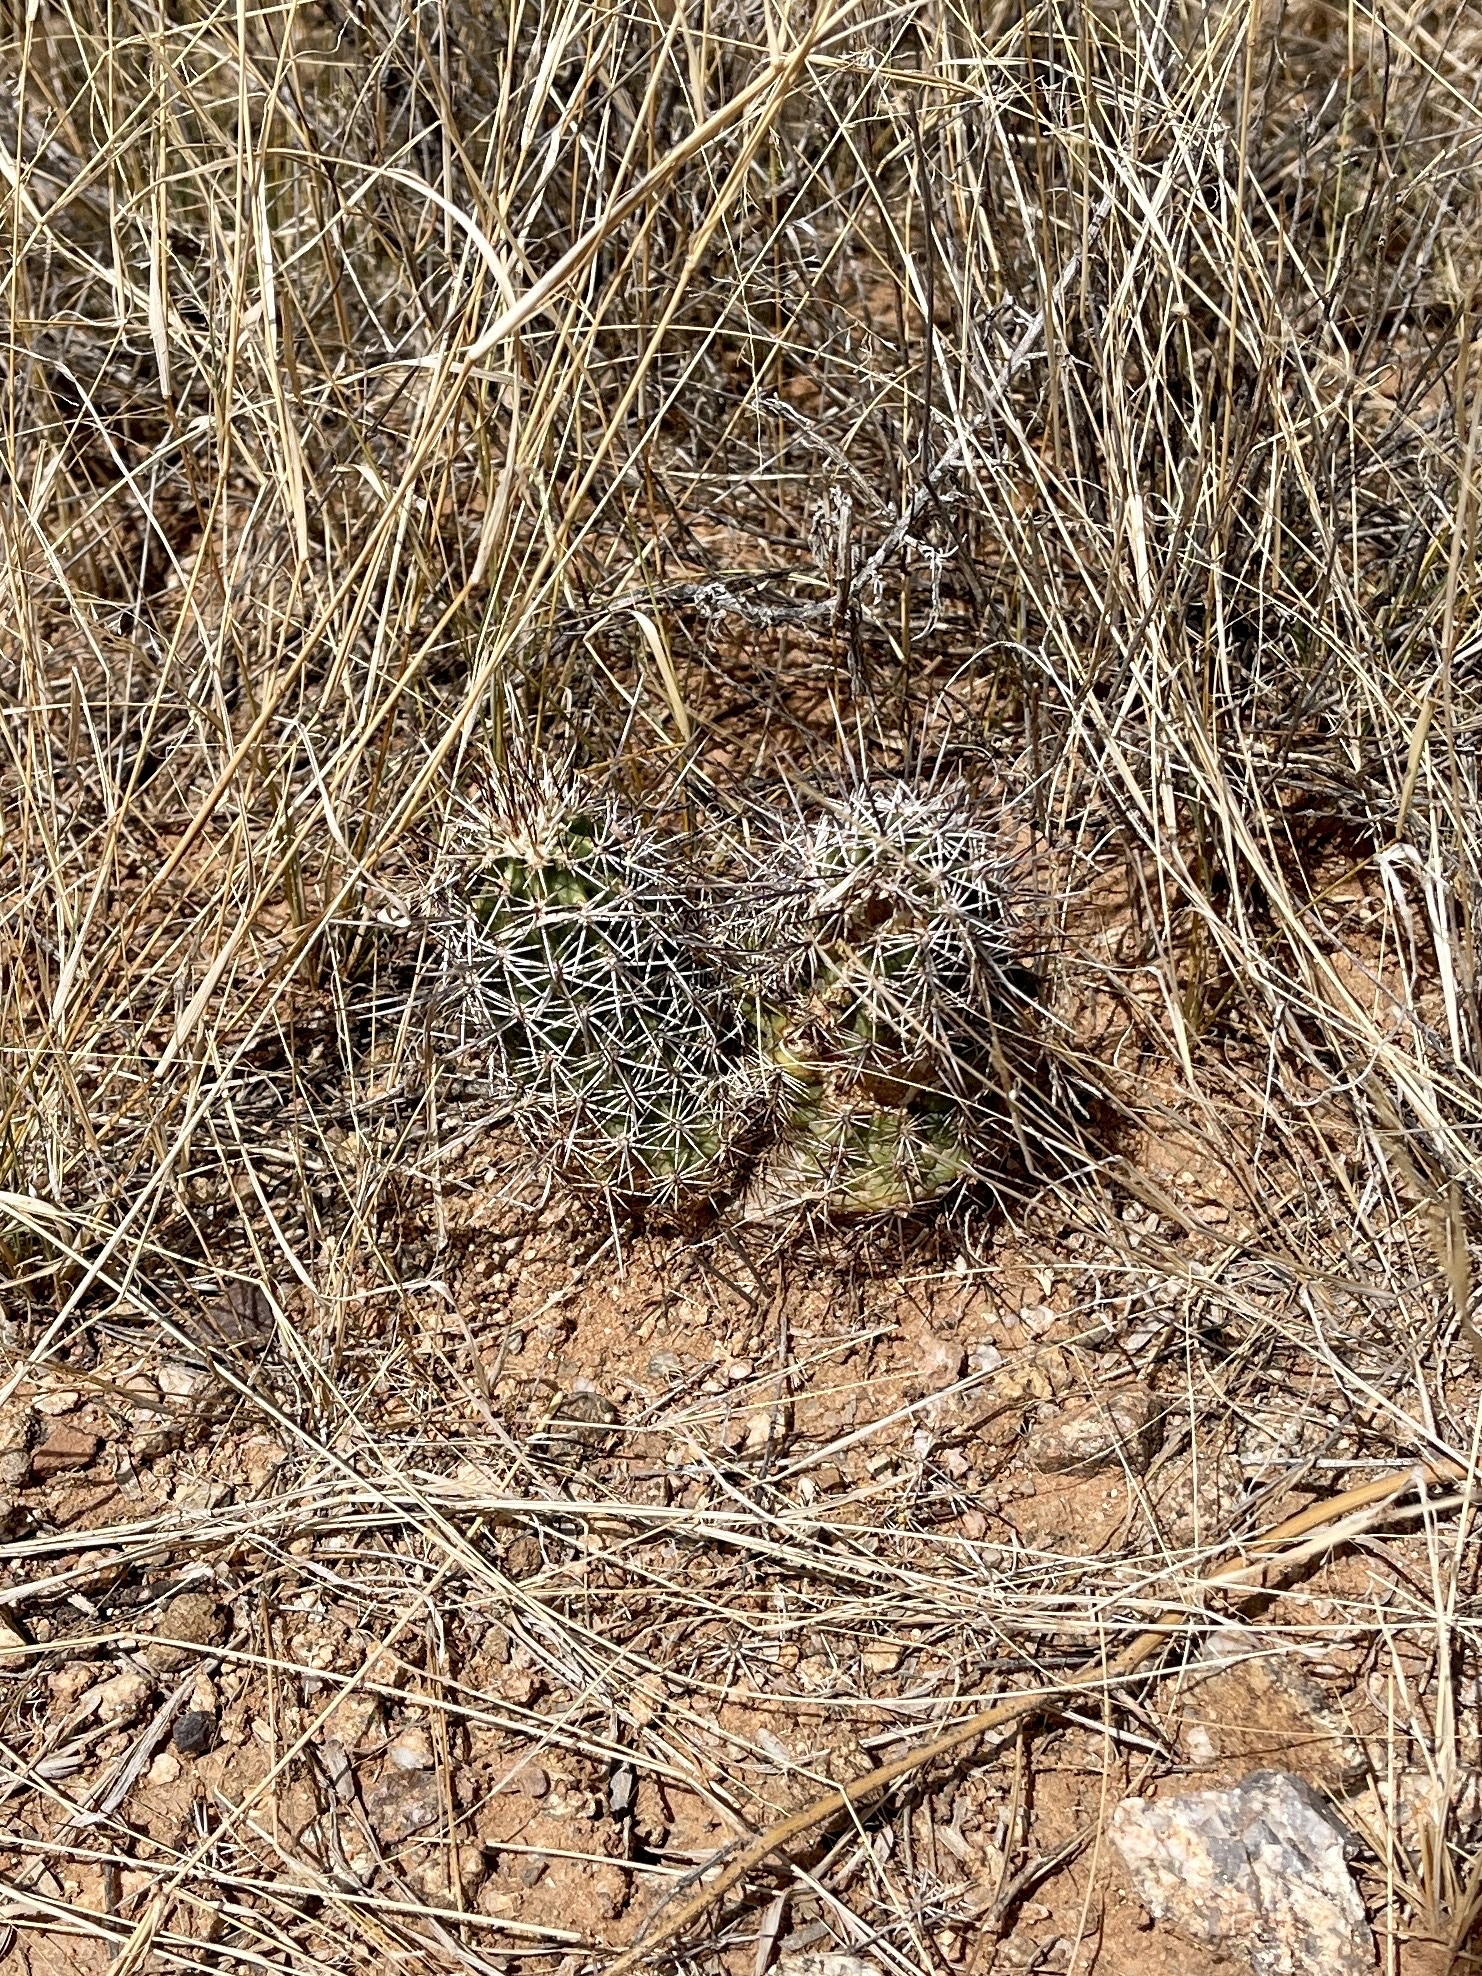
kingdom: Plantae
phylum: Tracheophyta
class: Magnoliopsida
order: Caryophyllales
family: Cactaceae
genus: Echinocereus
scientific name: Echinocereus fasciculatus
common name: Bundle hedgehog
